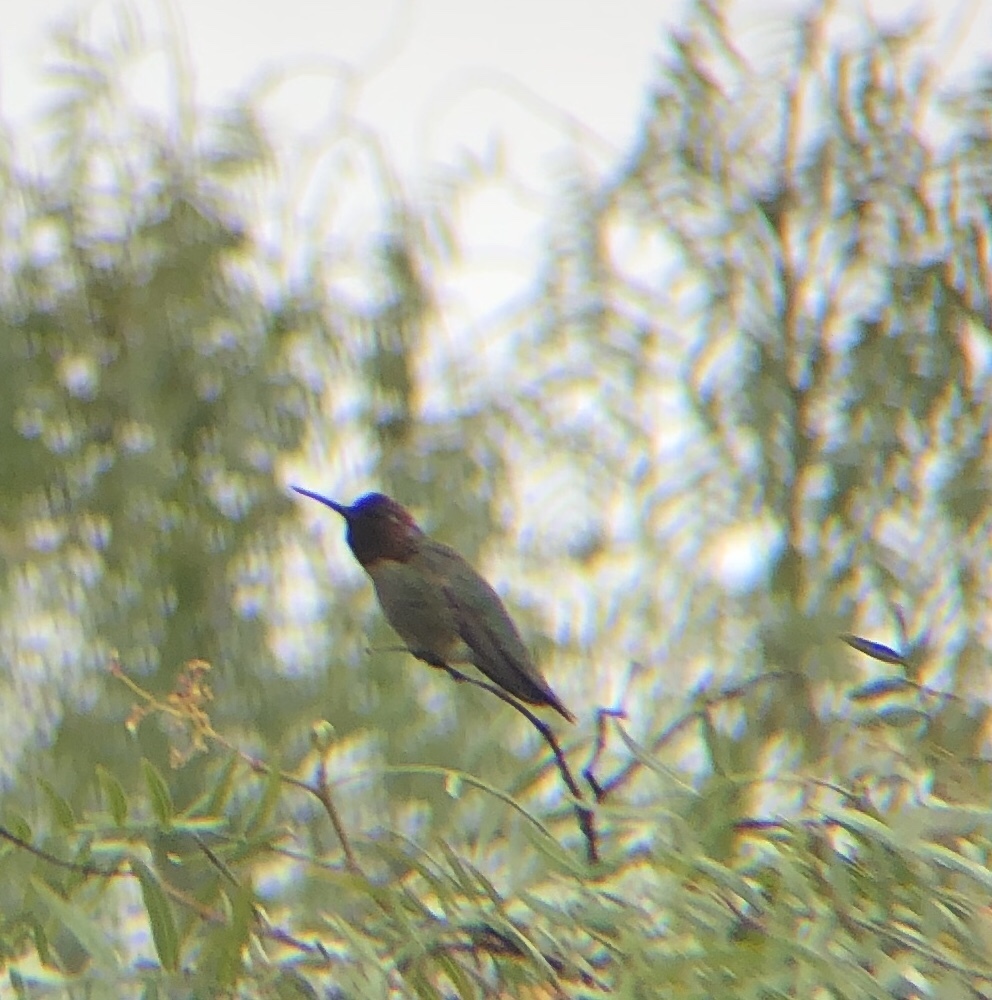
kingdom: Animalia
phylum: Chordata
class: Aves
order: Apodiformes
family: Trochilidae
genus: Calypte
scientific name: Calypte anna
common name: Anna's hummingbird
